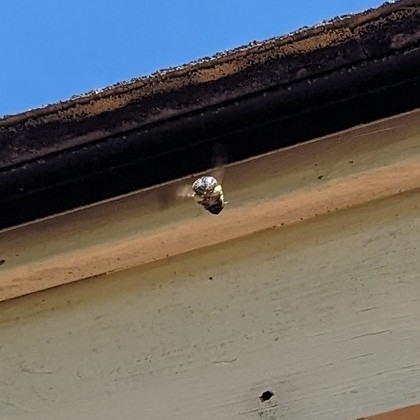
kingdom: Animalia
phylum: Arthropoda
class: Insecta
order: Hymenoptera
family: Apidae
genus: Xylocopa
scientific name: Xylocopa virginica
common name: Carpenter bee
